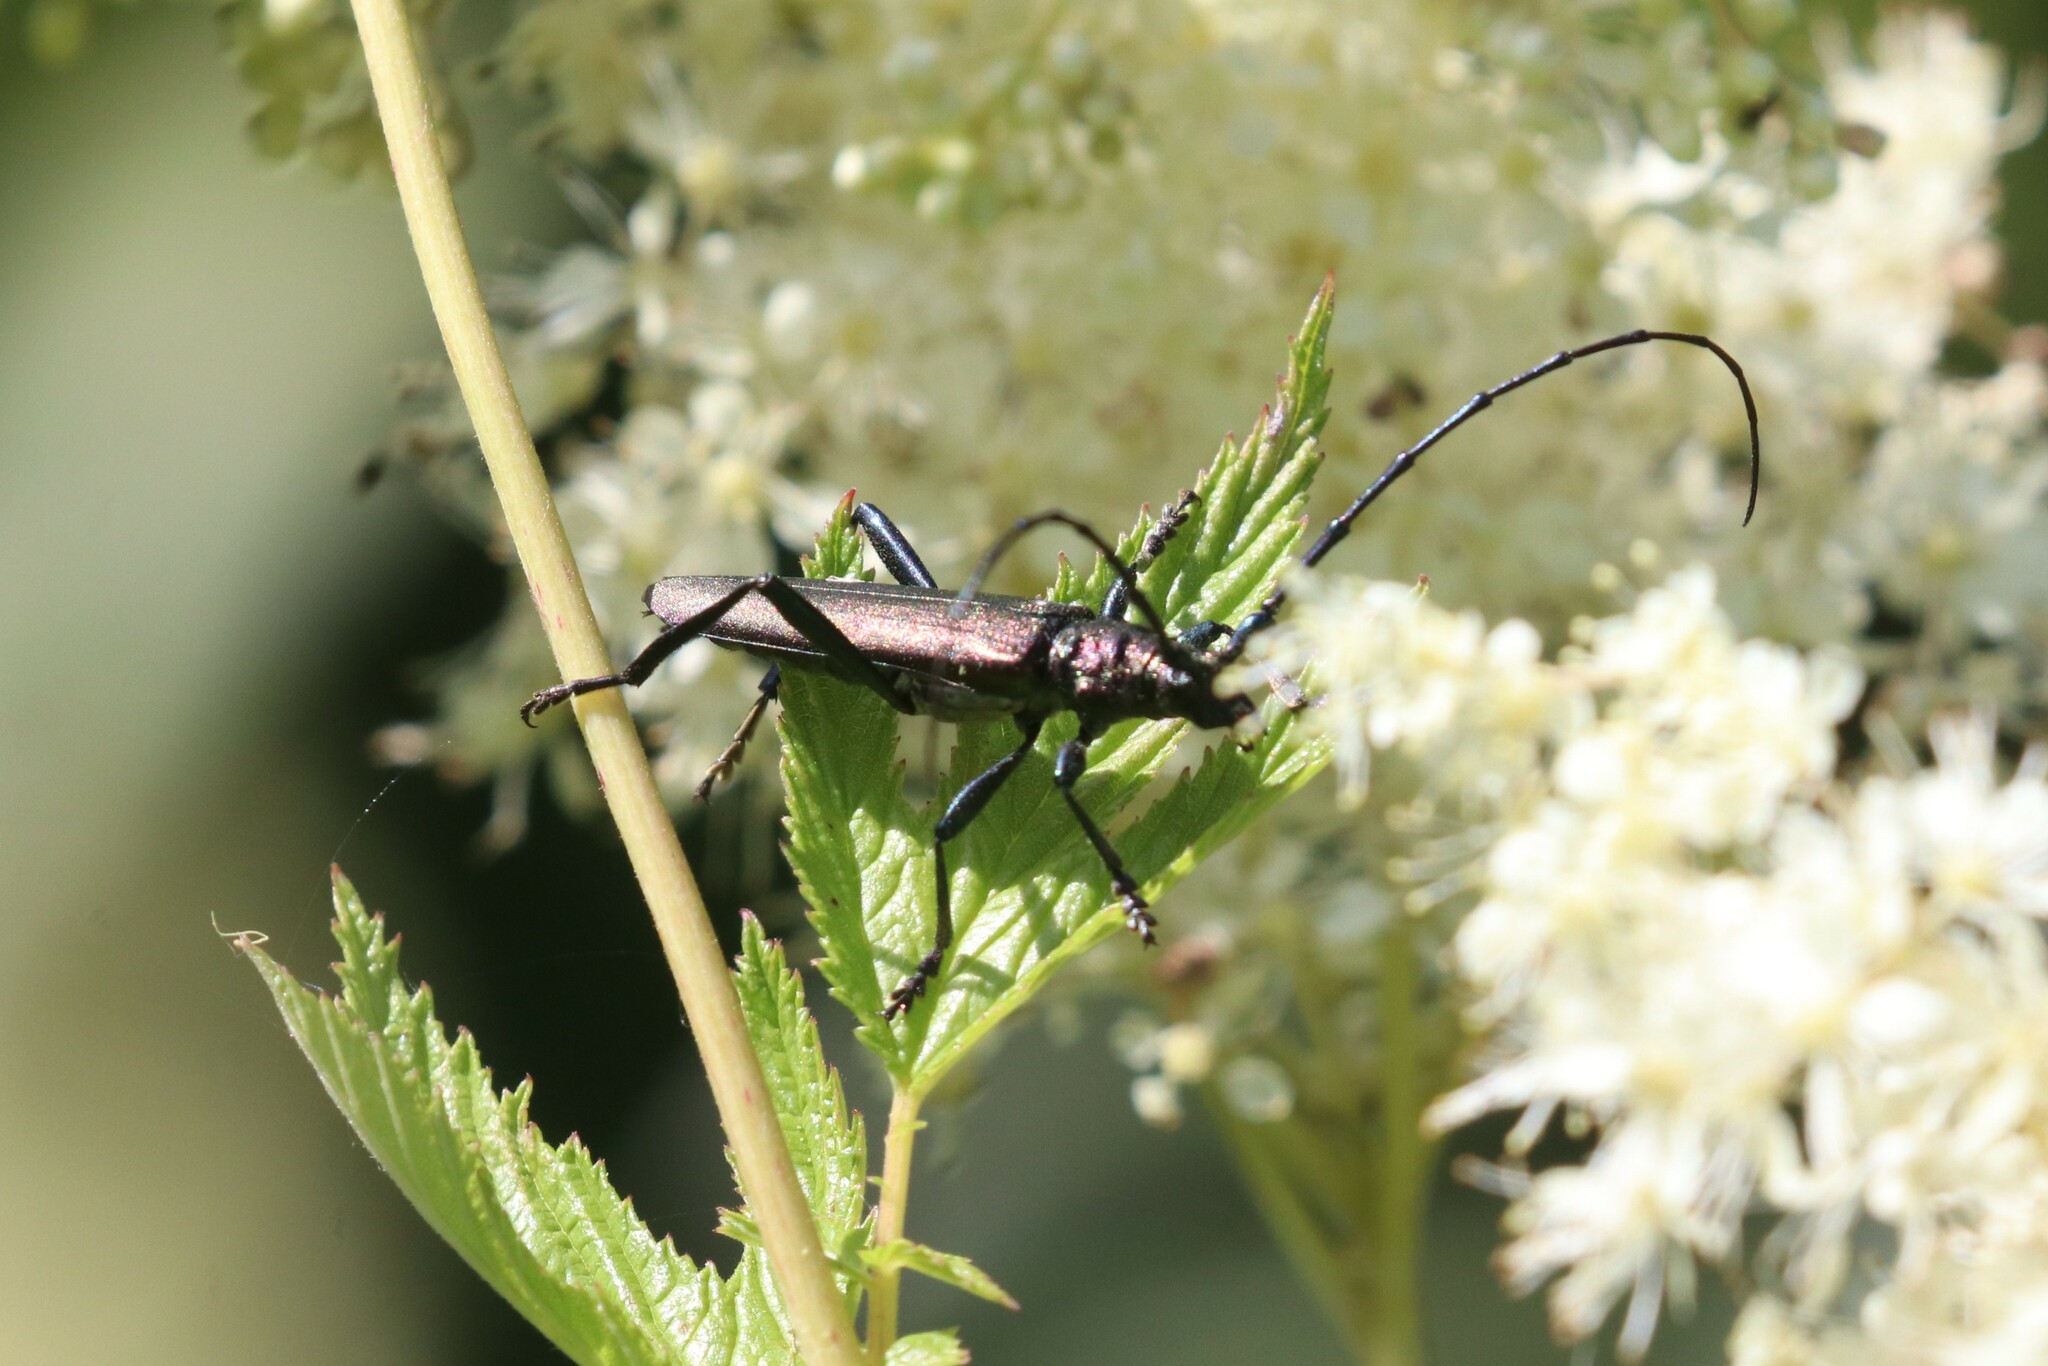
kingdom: Animalia
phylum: Arthropoda
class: Insecta
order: Coleoptera
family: Cerambycidae
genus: Aromia
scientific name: Aromia moschata
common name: Musk beetle
